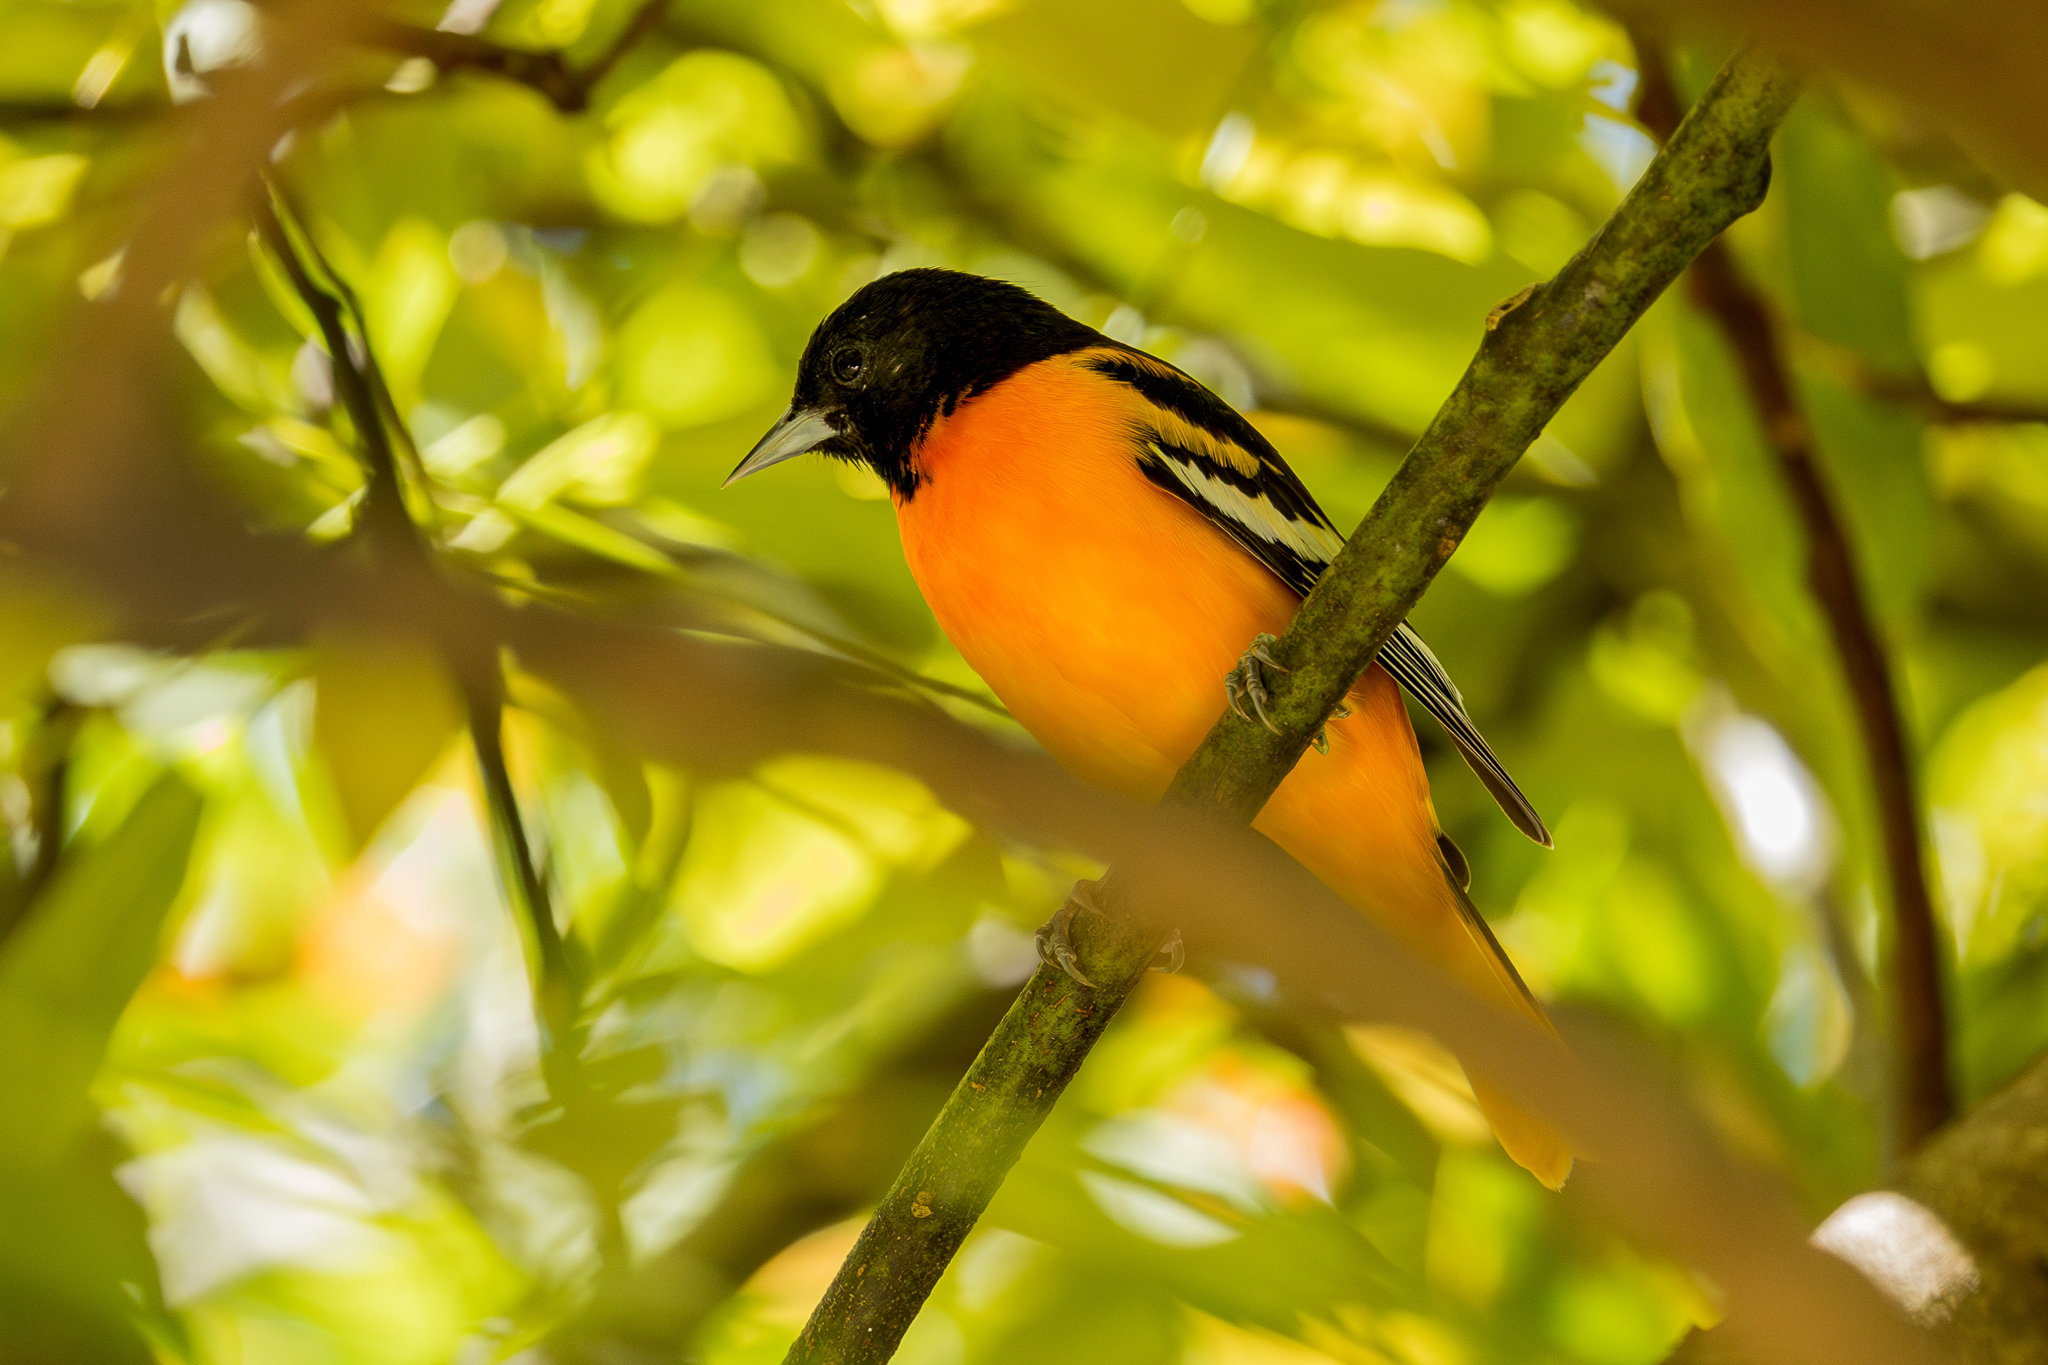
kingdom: Animalia
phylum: Chordata
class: Aves
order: Passeriformes
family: Icteridae
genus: Icterus
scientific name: Icterus galbula
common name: Baltimore oriole
